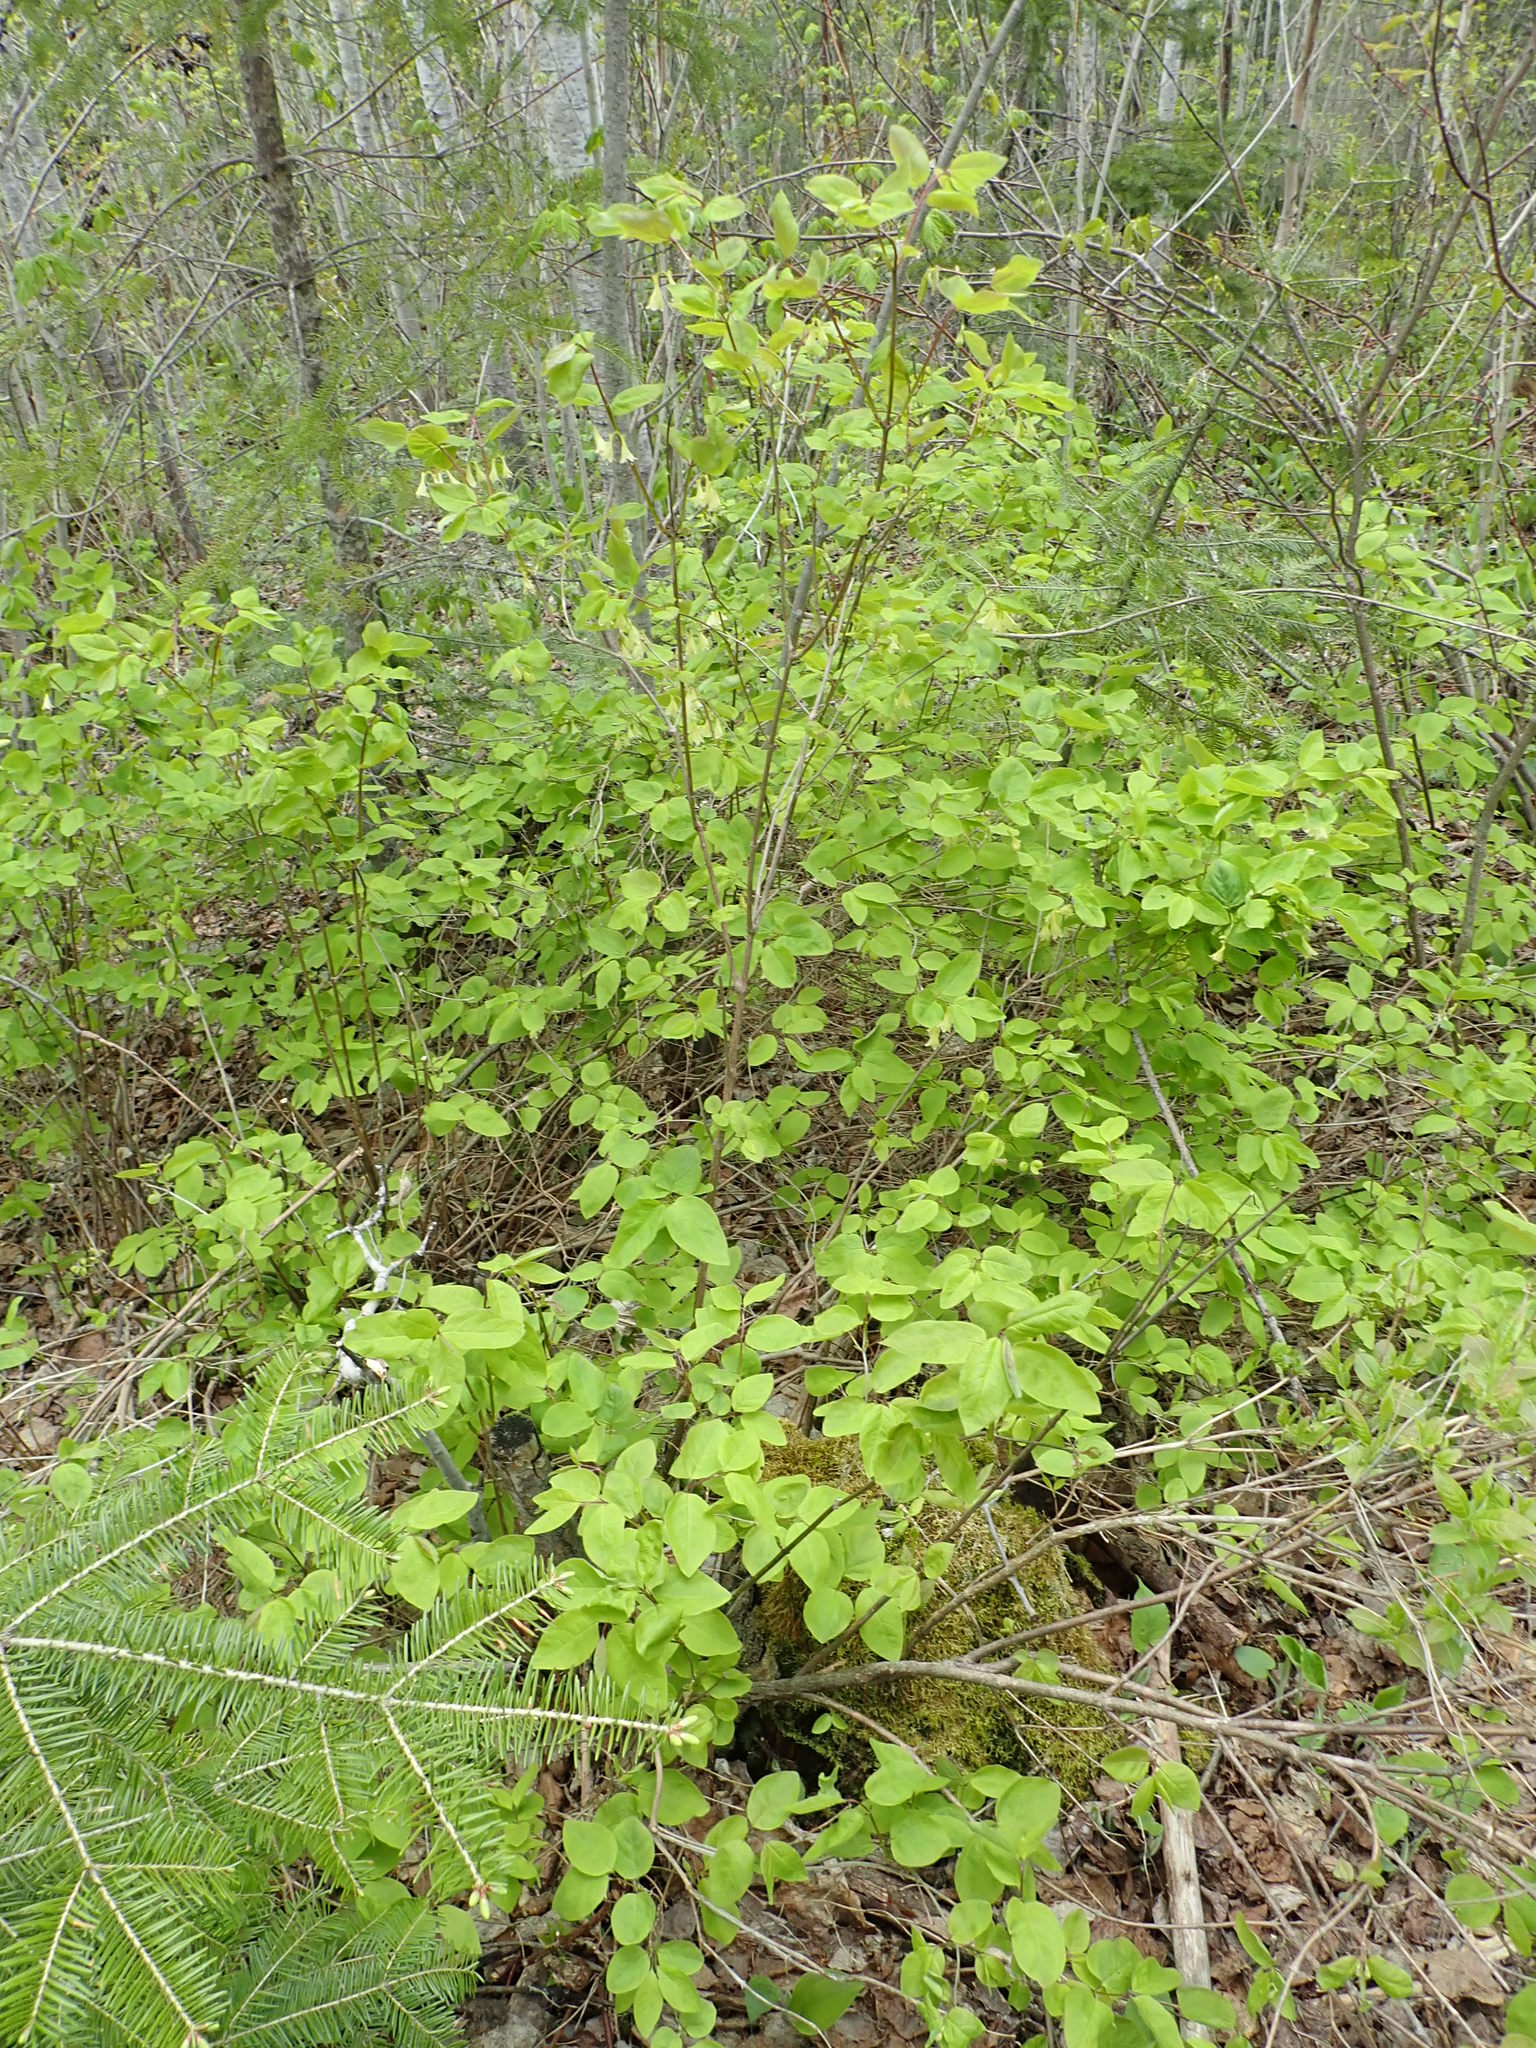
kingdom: Plantae
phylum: Tracheophyta
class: Magnoliopsida
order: Dipsacales
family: Caprifoliaceae
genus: Lonicera
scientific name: Lonicera canadensis
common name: American fly-honeysuckle
